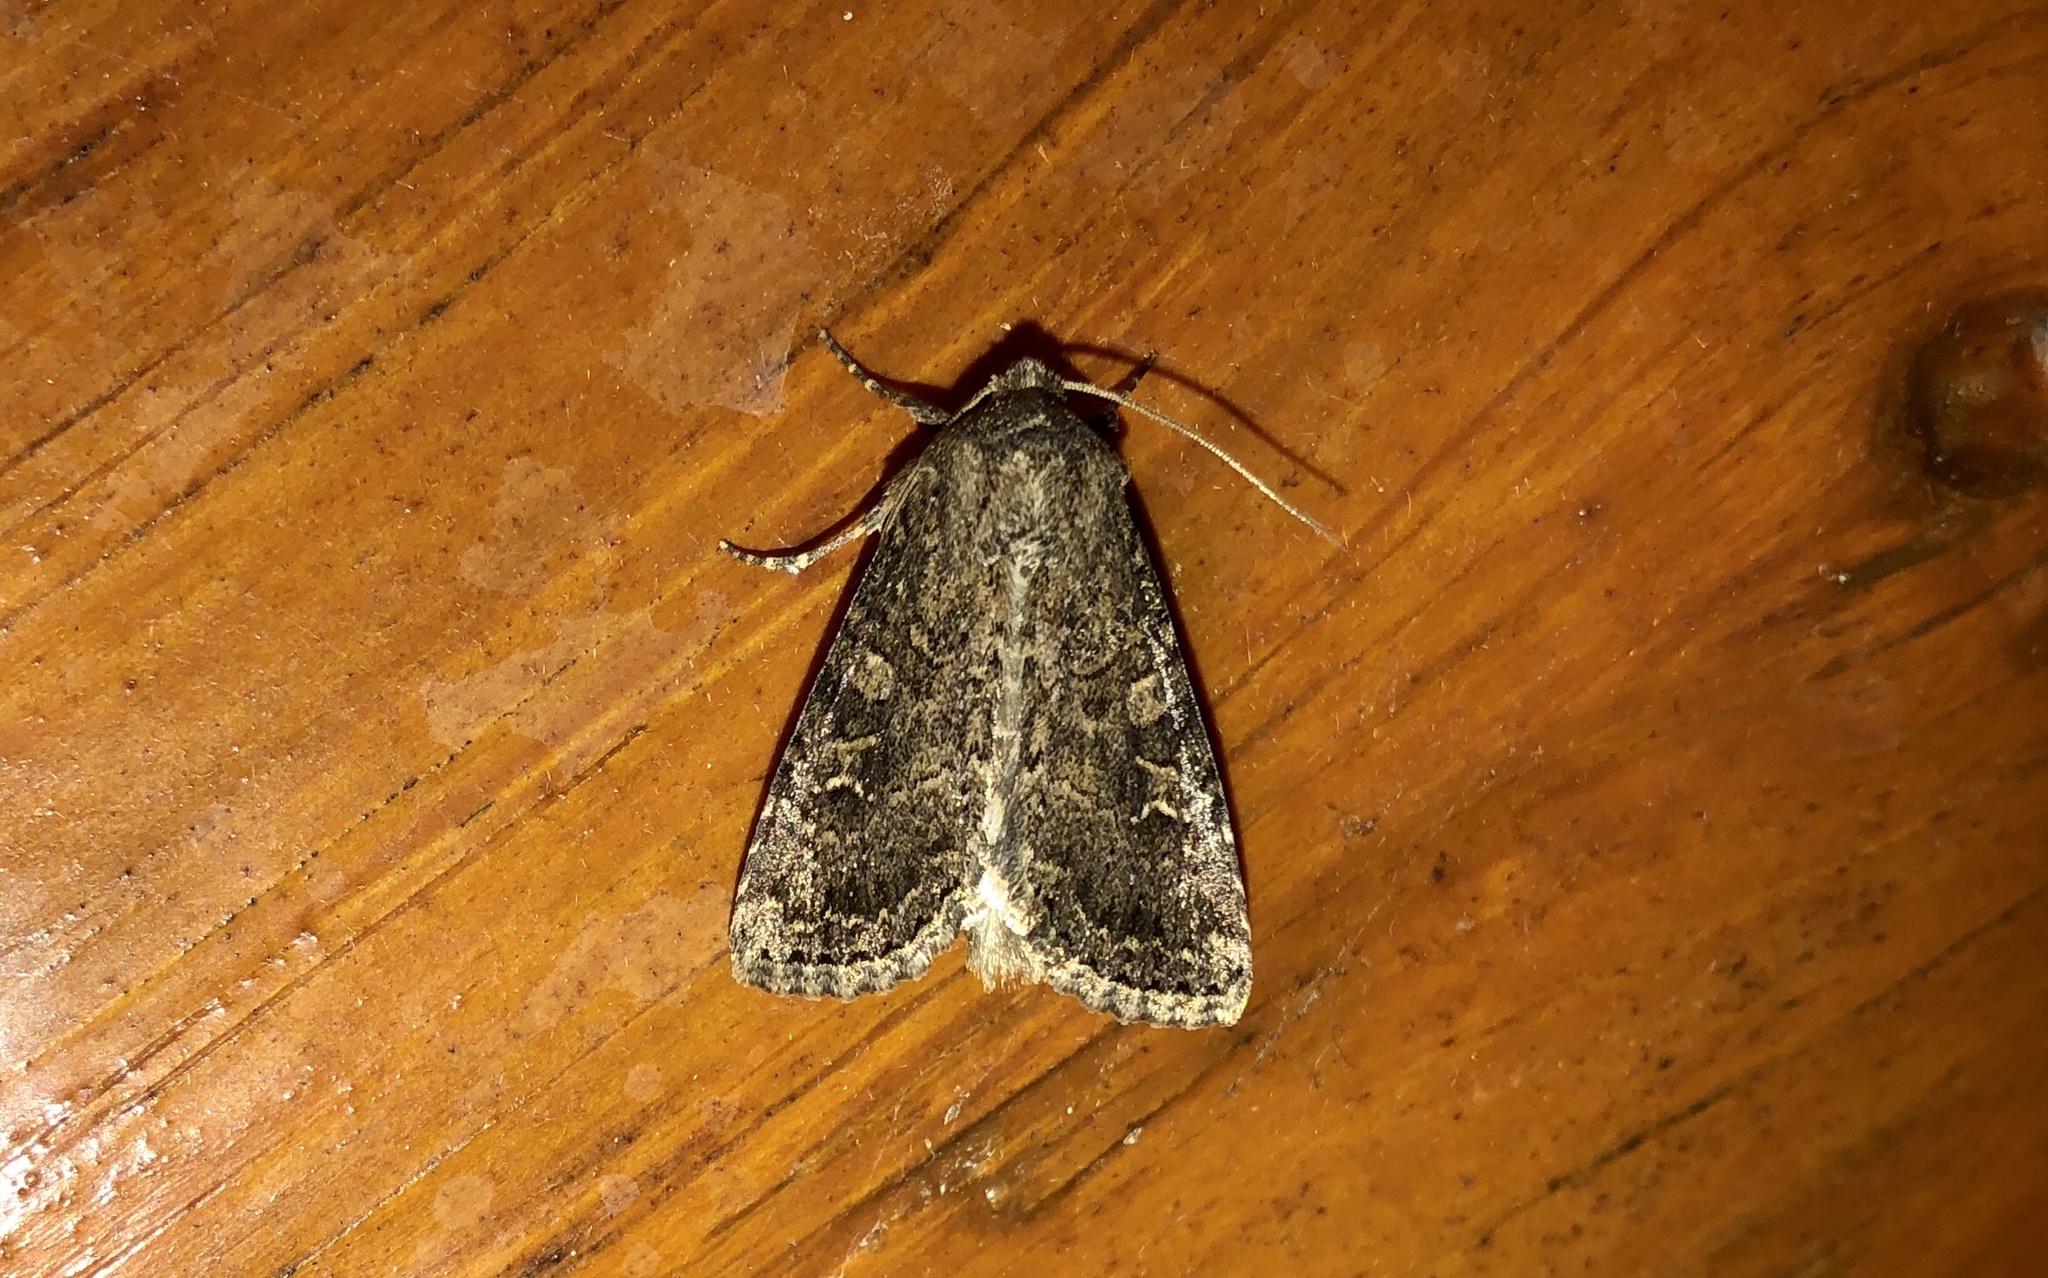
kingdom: Animalia
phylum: Arthropoda
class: Insecta
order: Lepidoptera
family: Noctuidae
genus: Apamea
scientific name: Apamea devastator
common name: Glassy cutworm
